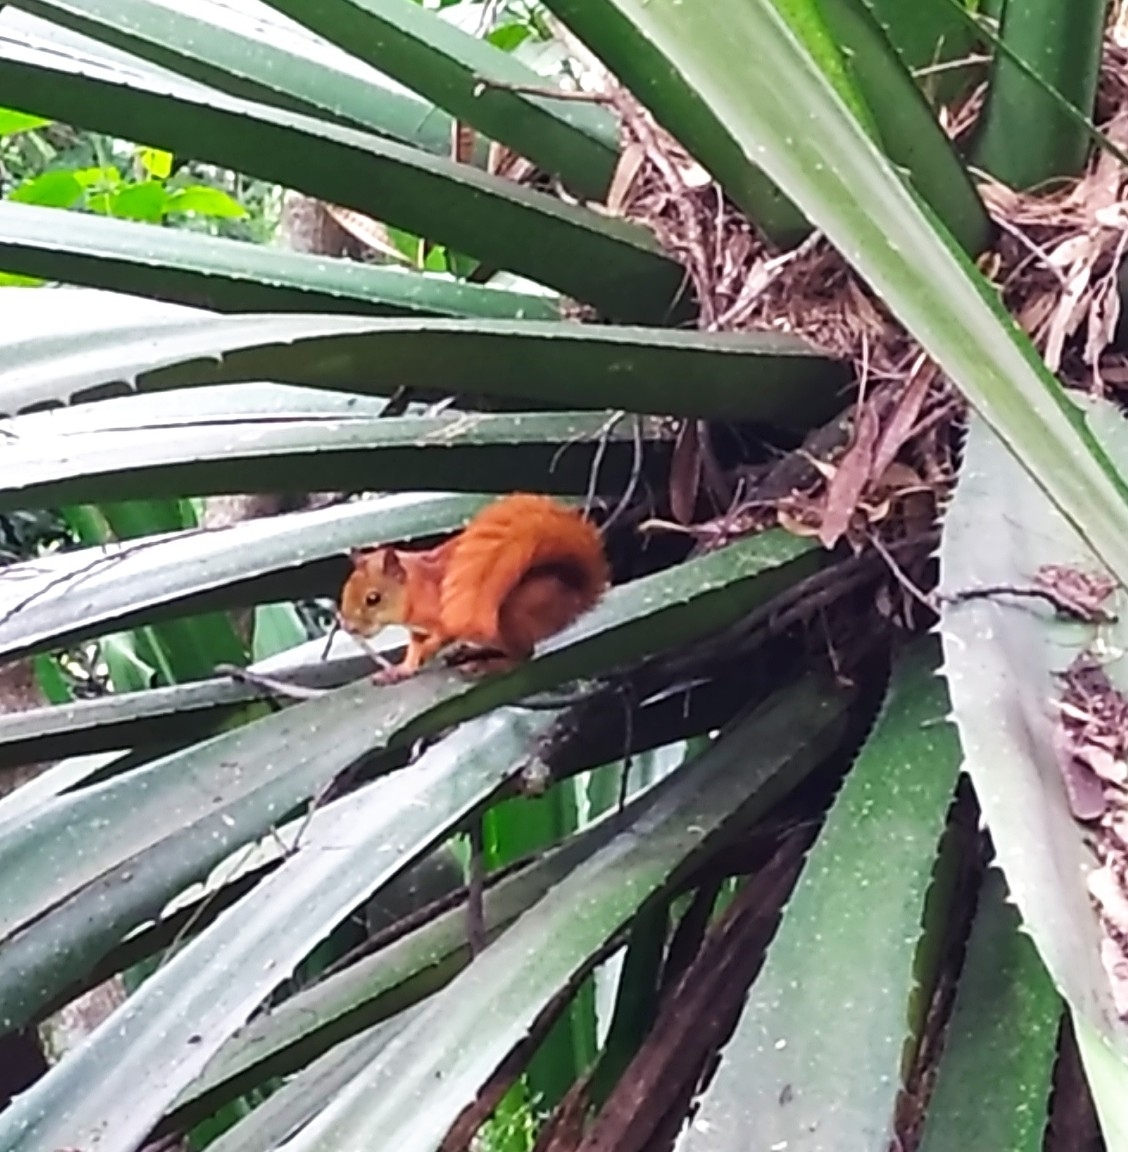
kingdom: Animalia
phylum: Chordata
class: Mammalia
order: Rodentia
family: Sciuridae
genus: Sciurus
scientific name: Sciurus granatensis
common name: Red-tailed squirrel
